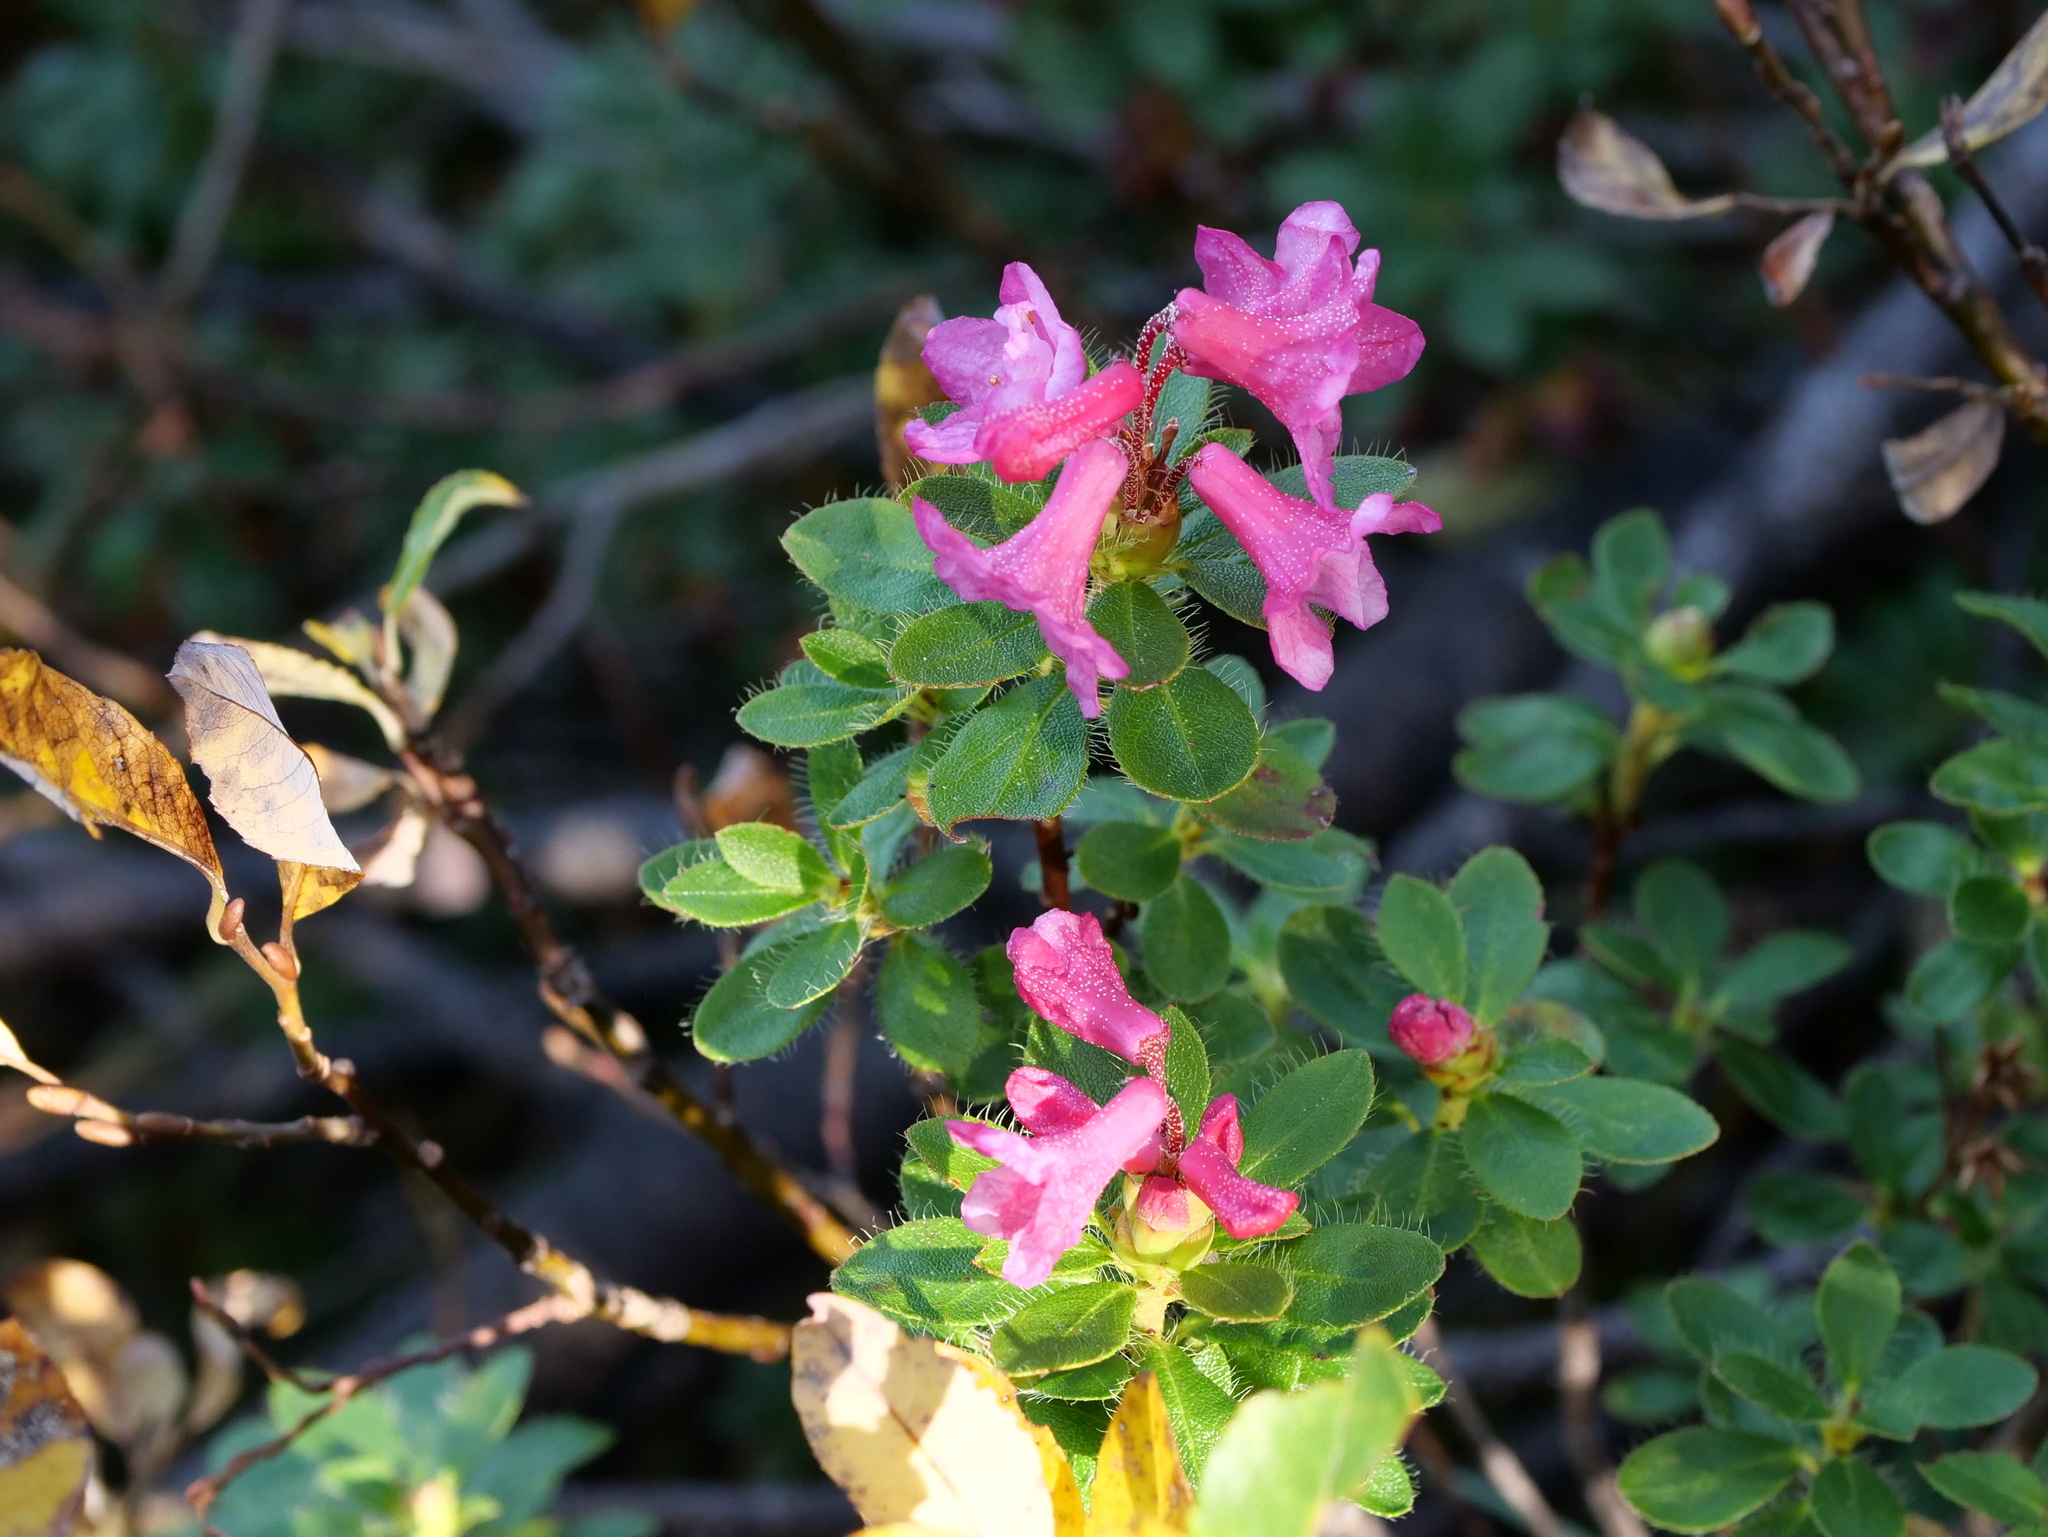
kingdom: Plantae
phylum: Tracheophyta
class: Magnoliopsida
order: Ericales
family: Ericaceae
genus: Rhododendron
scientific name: Rhododendron hirsutum
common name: Hairy alpenrose
